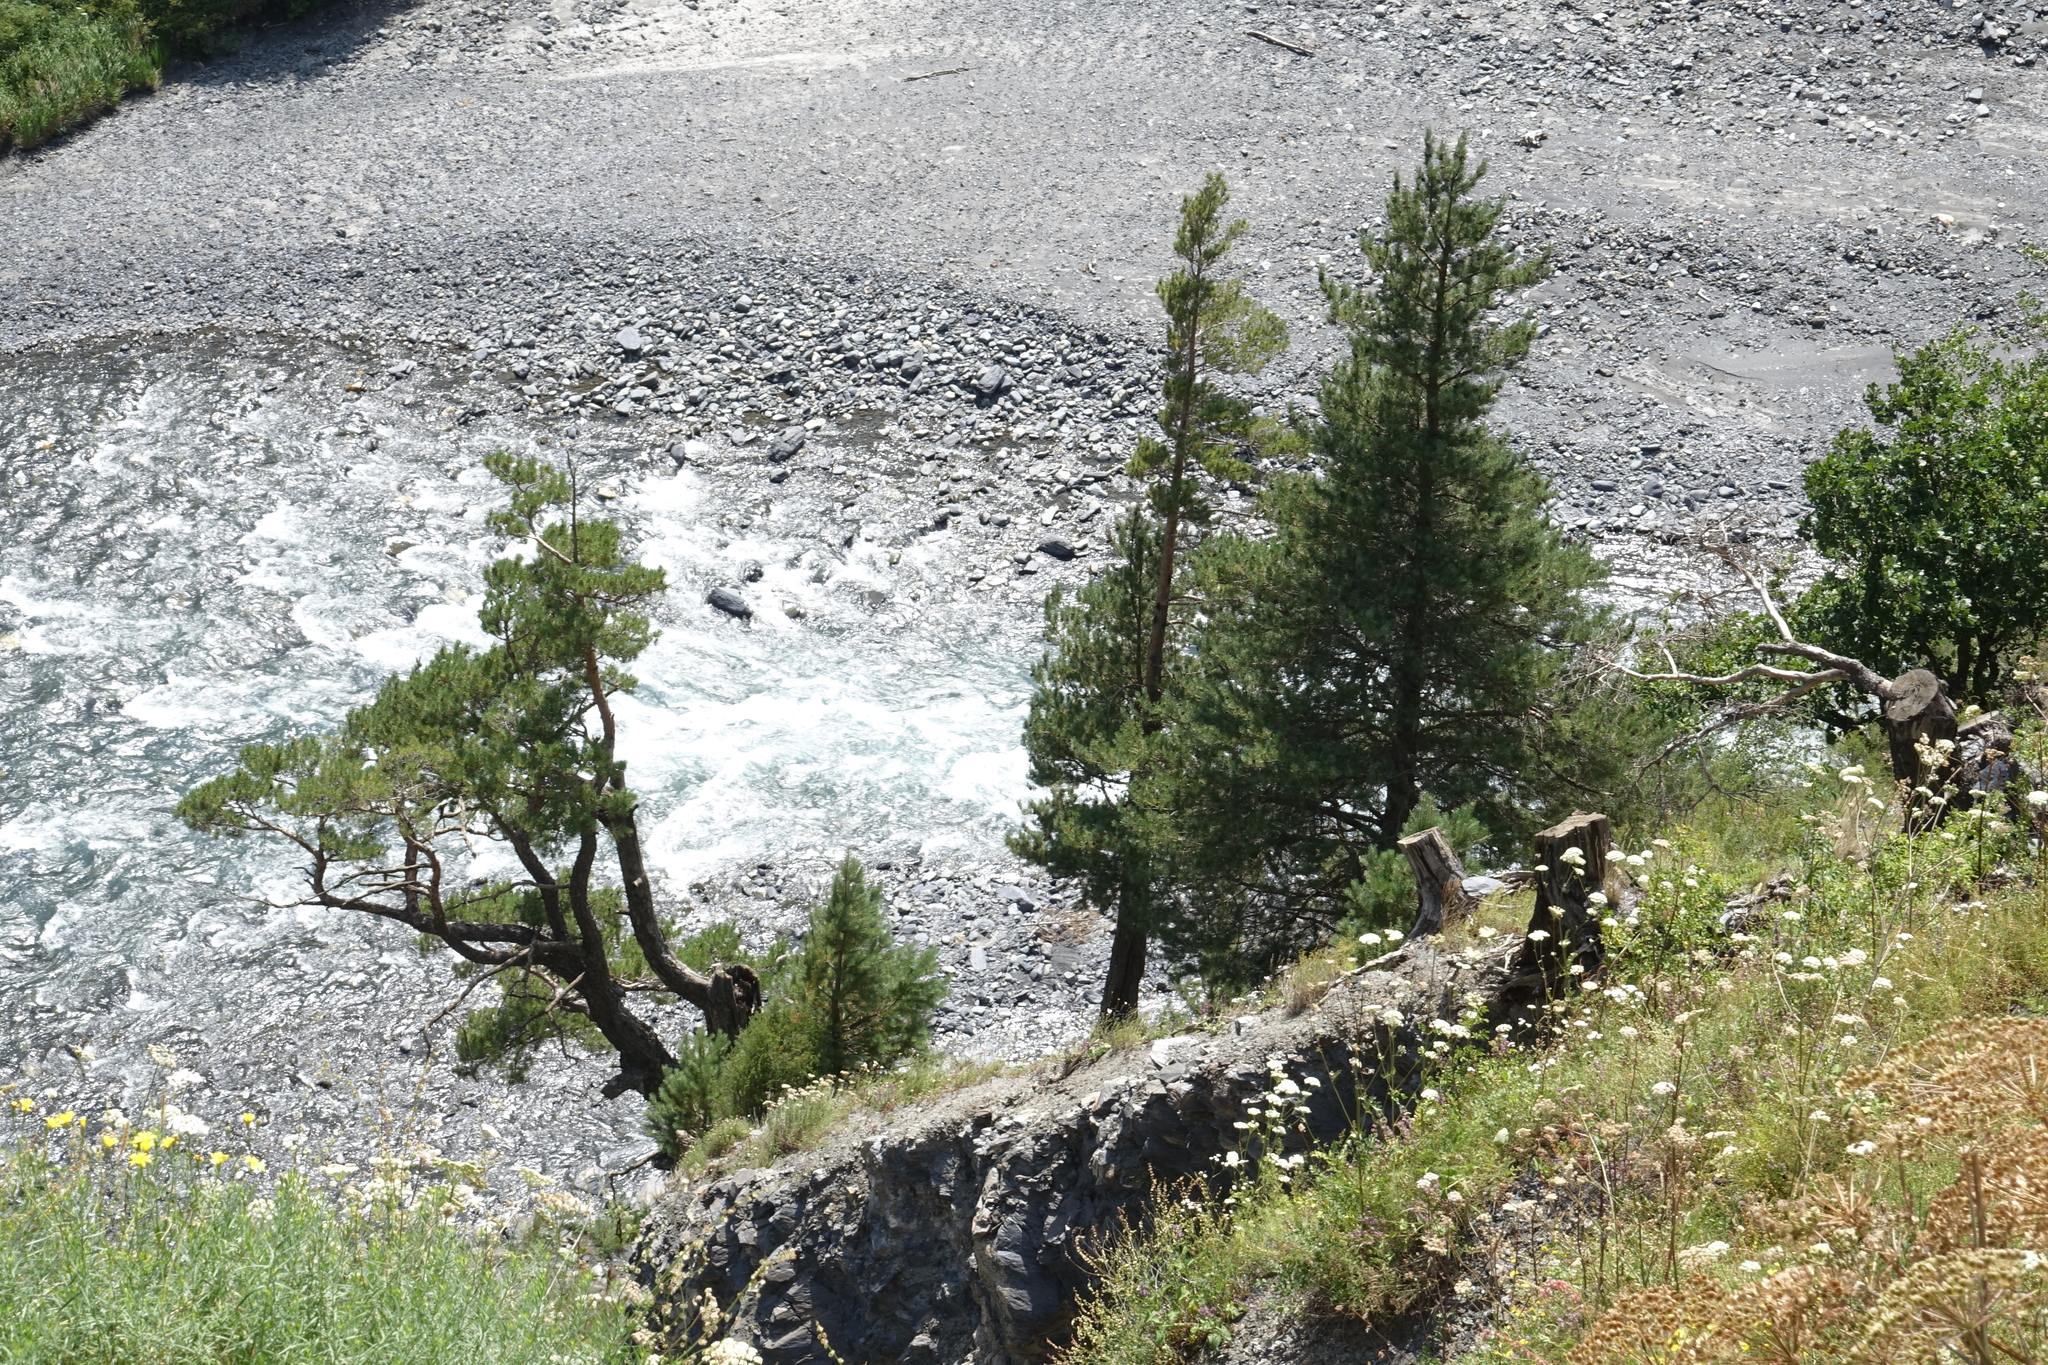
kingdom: Plantae
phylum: Tracheophyta
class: Pinopsida
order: Pinales
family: Pinaceae
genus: Pinus
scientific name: Pinus sylvestris
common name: Scots pine
